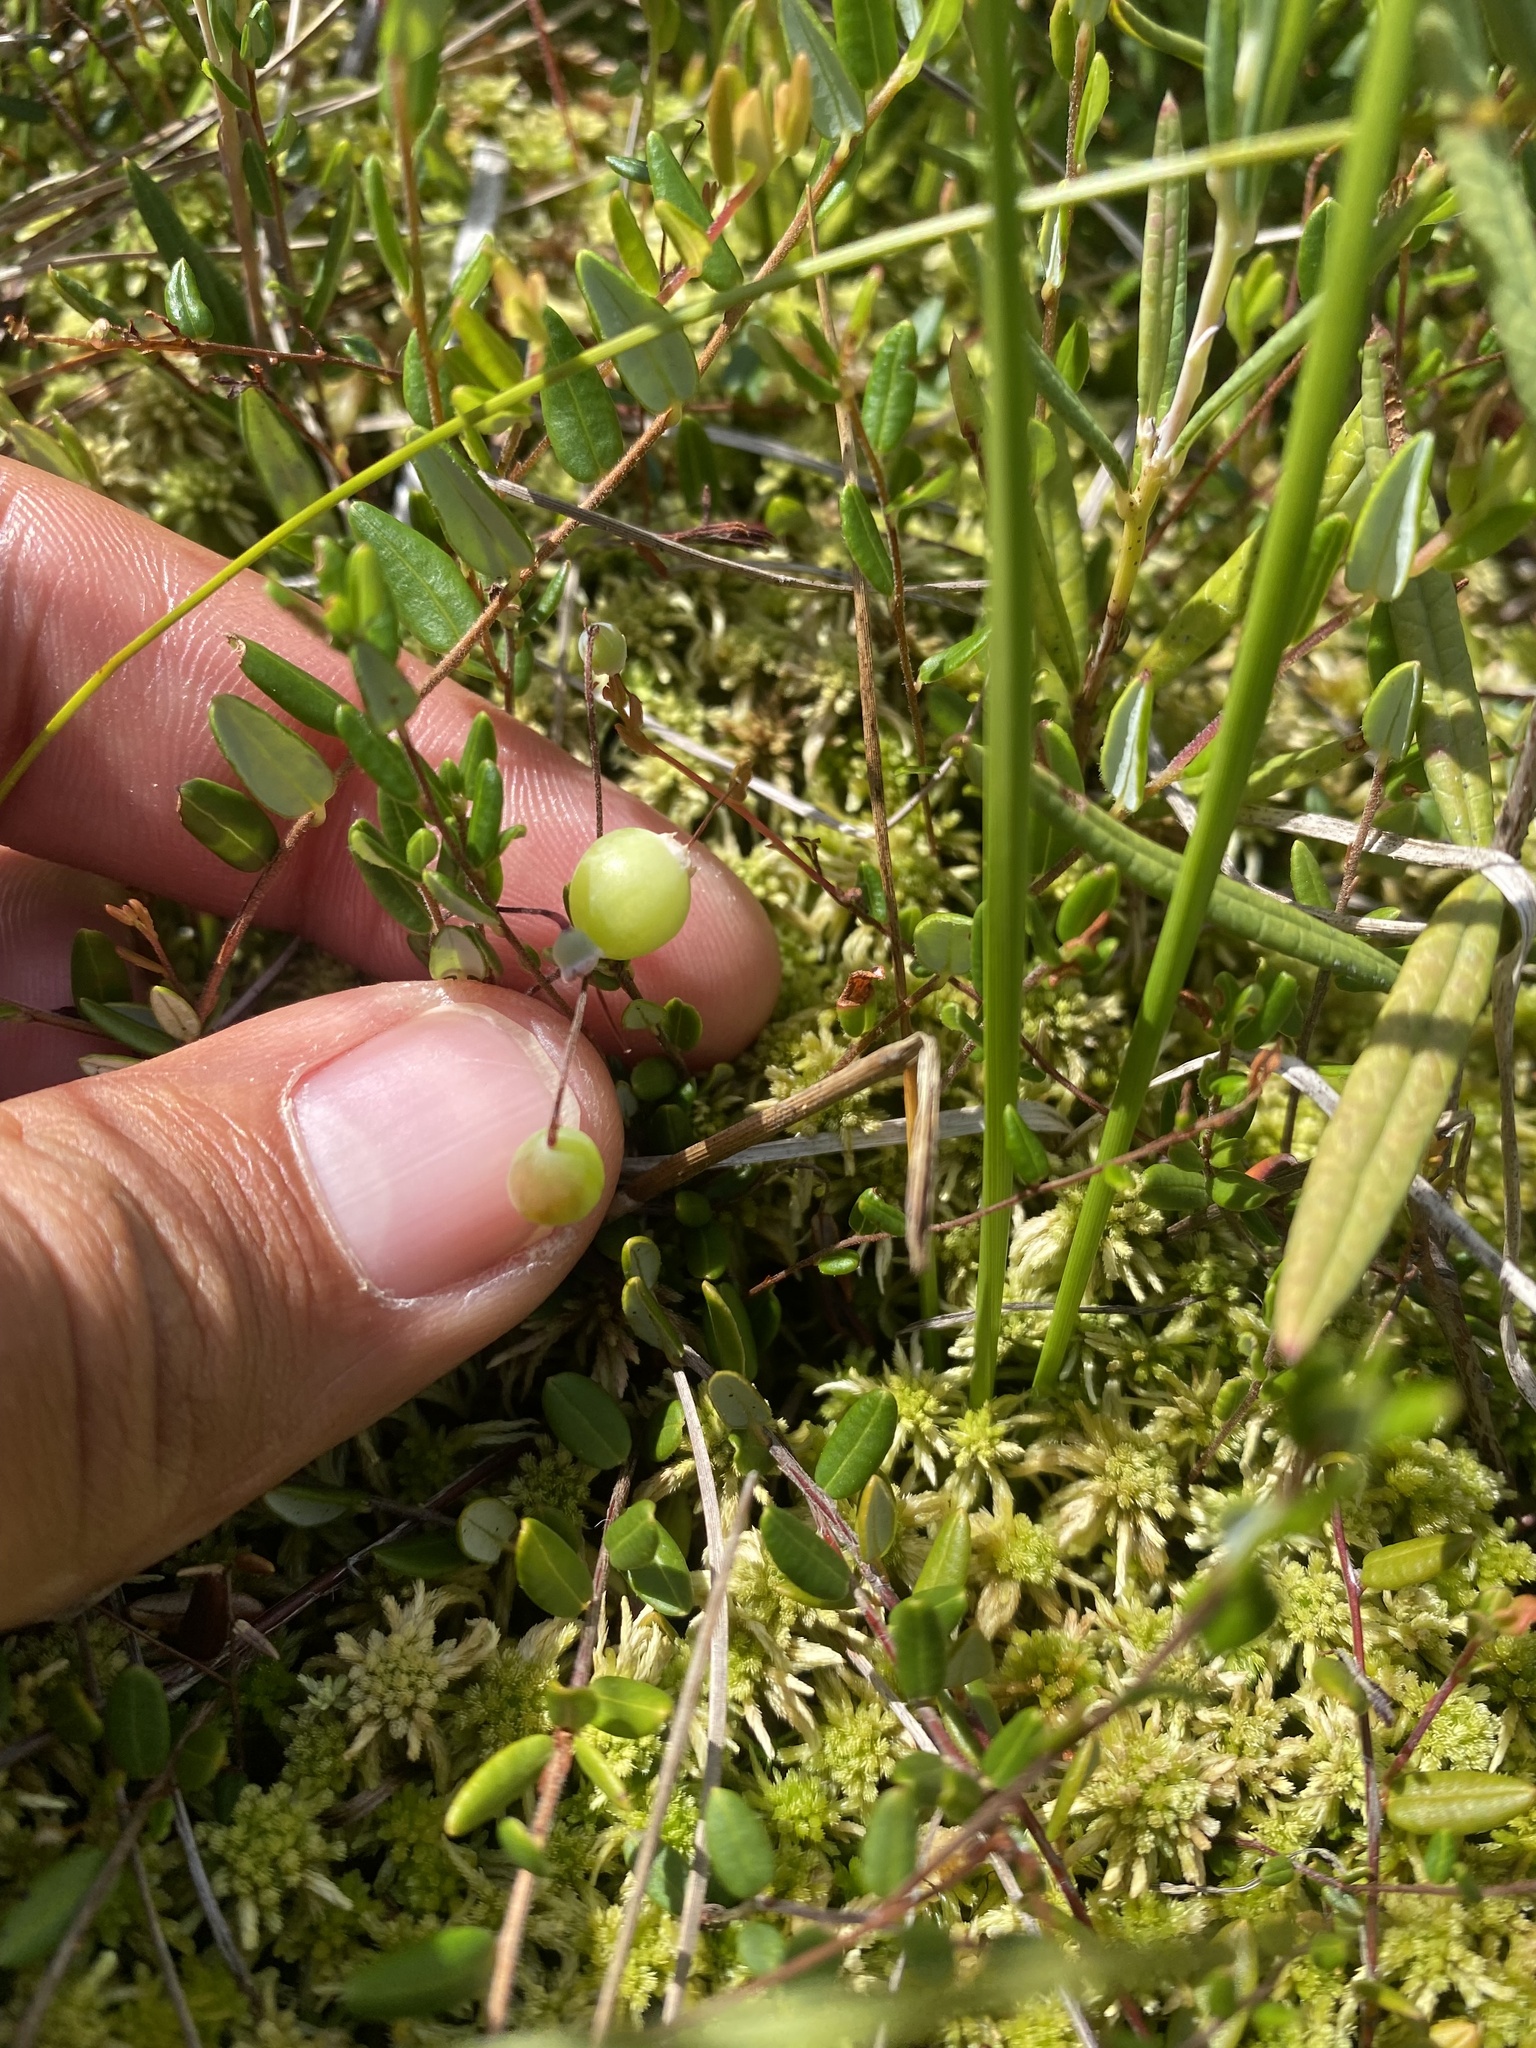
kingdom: Plantae
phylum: Tracheophyta
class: Magnoliopsida
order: Ericales
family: Ericaceae
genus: Vaccinium
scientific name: Vaccinium oxycoccos
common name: Cranberry
